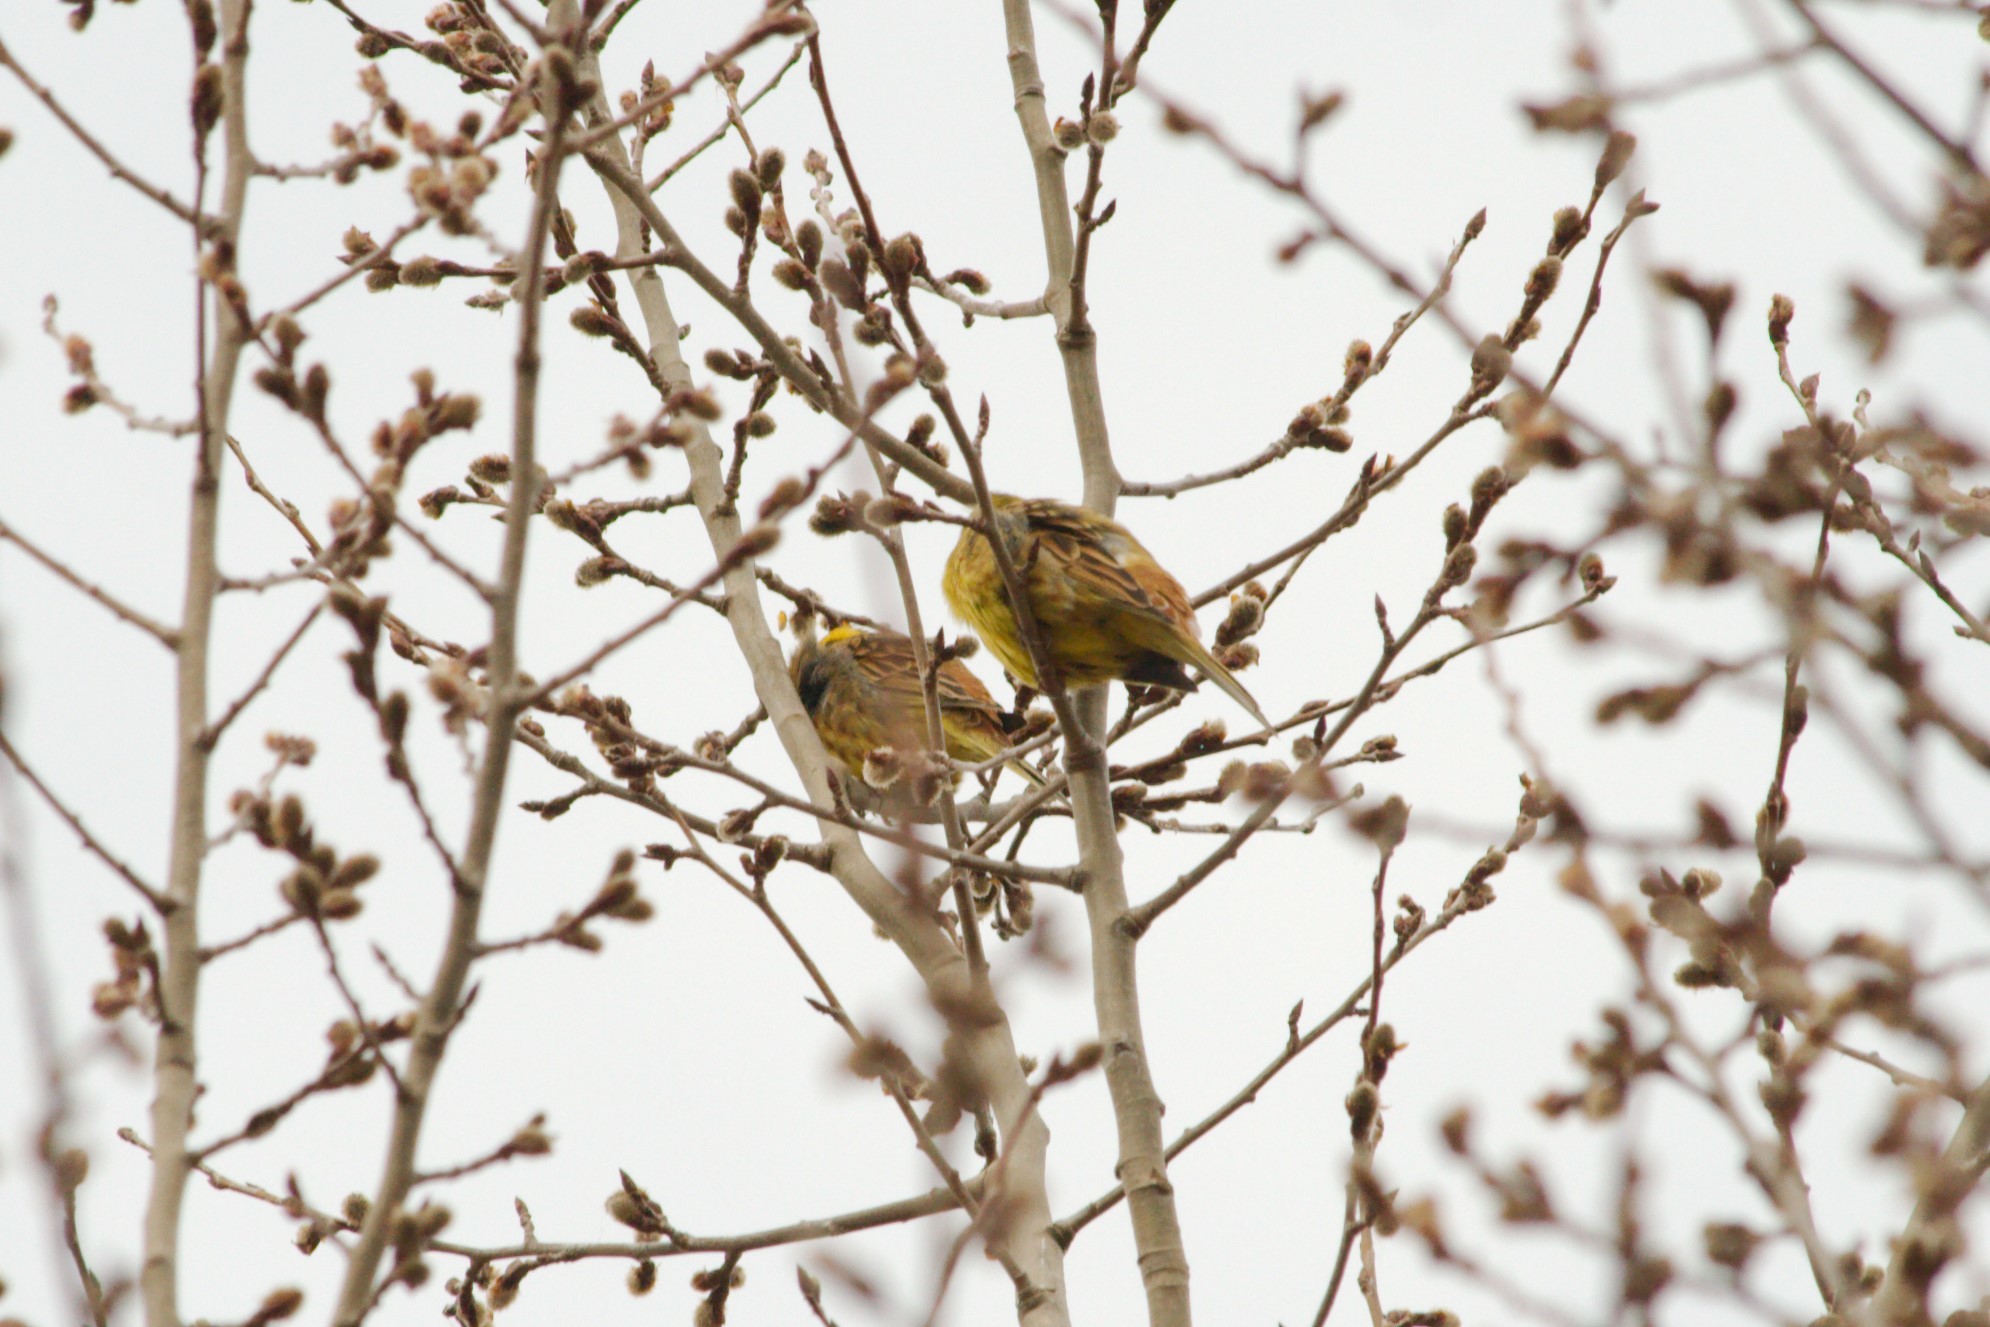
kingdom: Animalia
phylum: Chordata
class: Aves
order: Passeriformes
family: Emberizidae
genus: Emberiza
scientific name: Emberiza citrinella
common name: Yellowhammer
